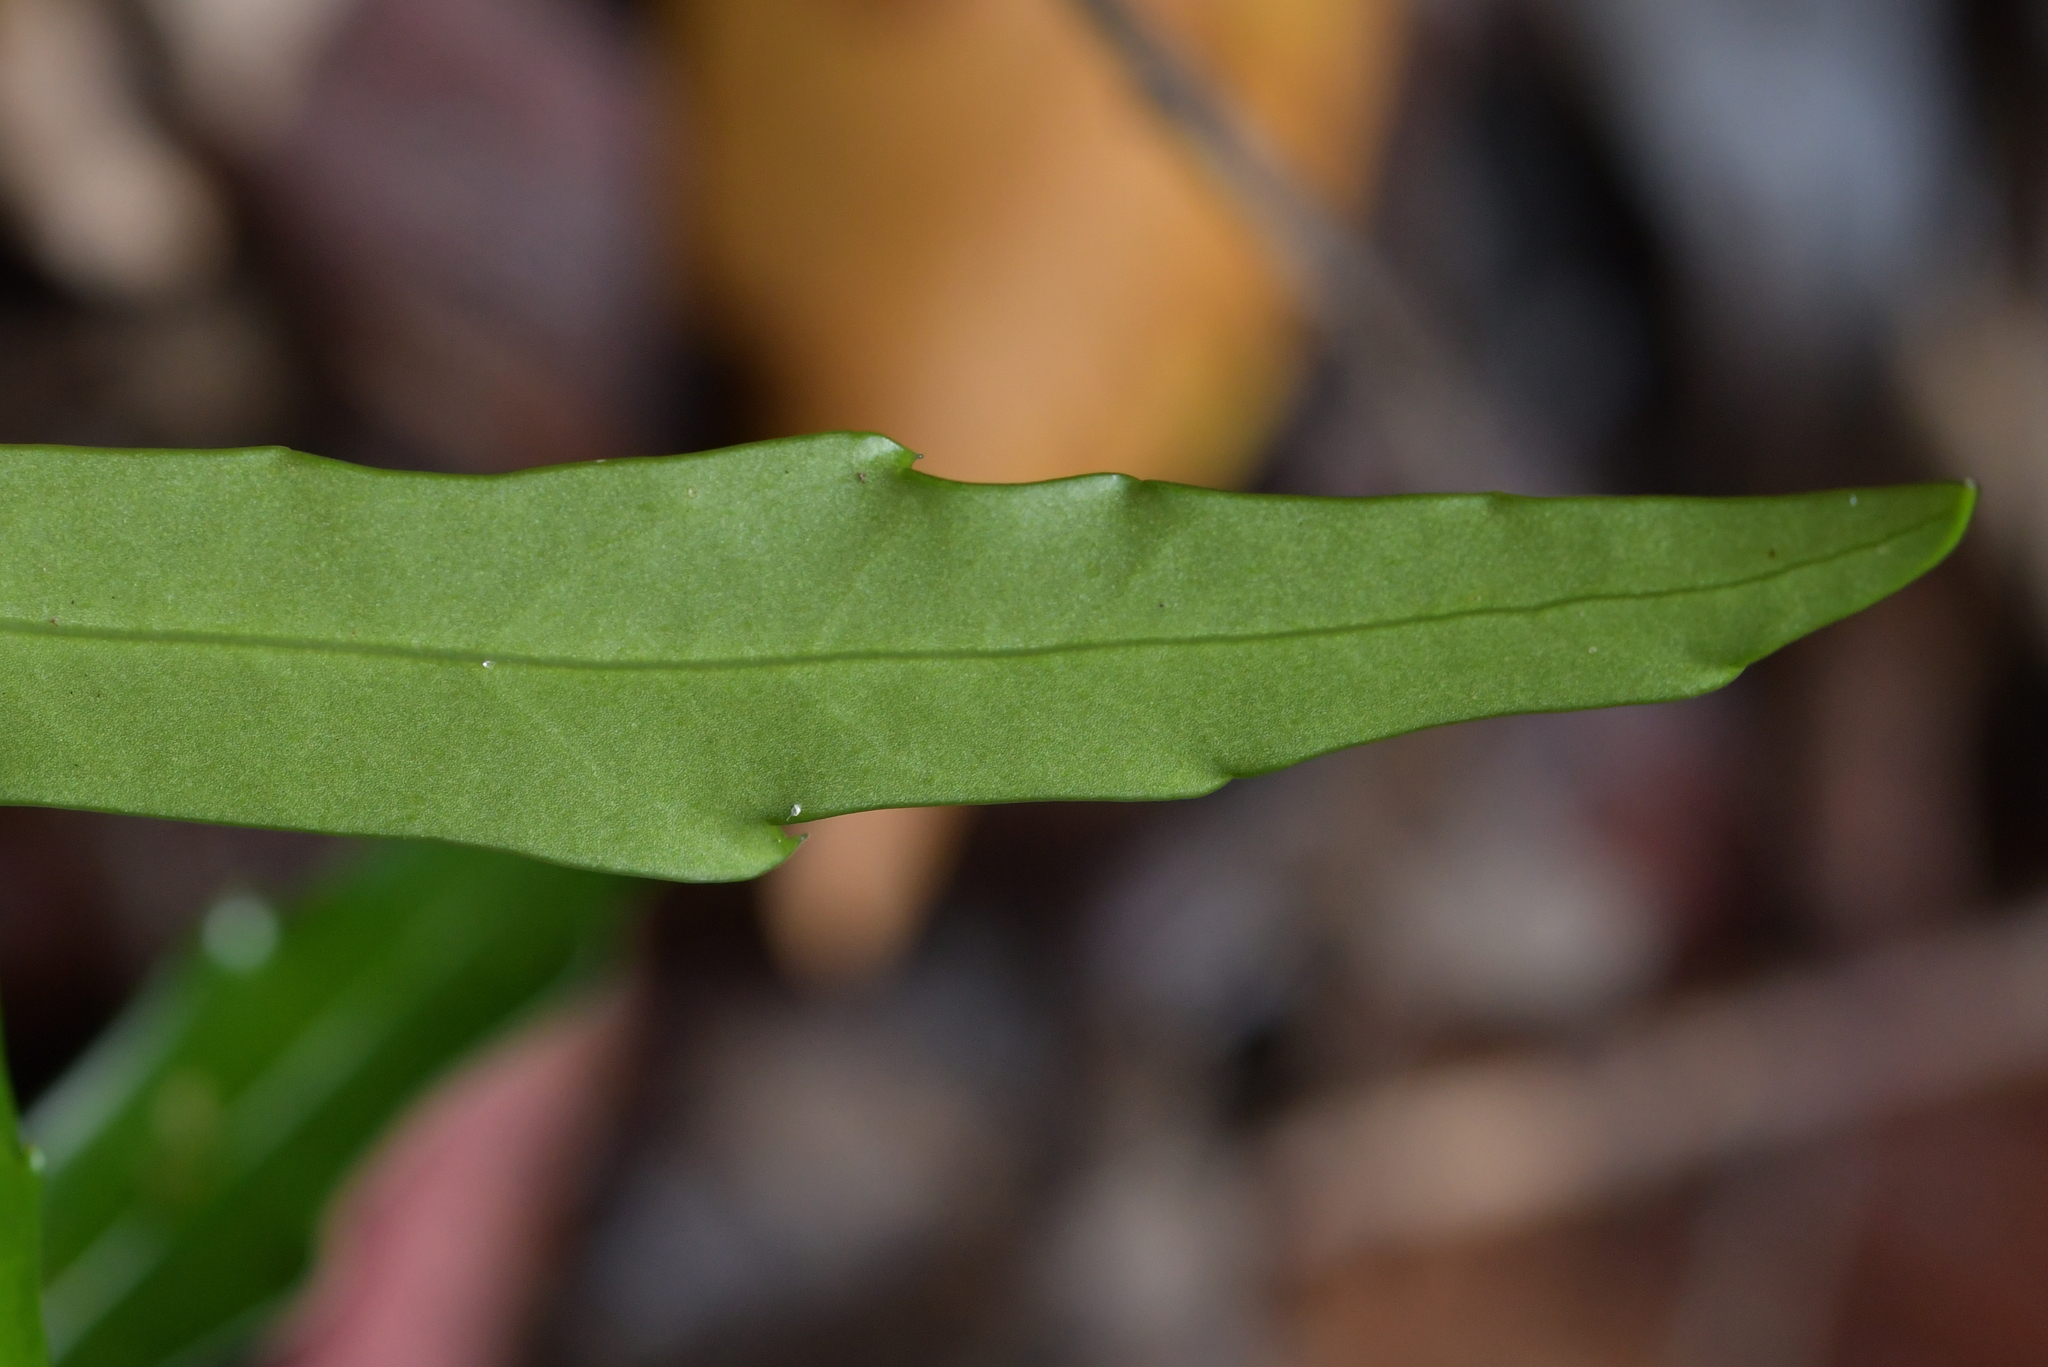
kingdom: Plantae
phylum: Tracheophyta
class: Magnoliopsida
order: Apiales
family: Araliaceae
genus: Pseudopanax
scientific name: Pseudopanax
